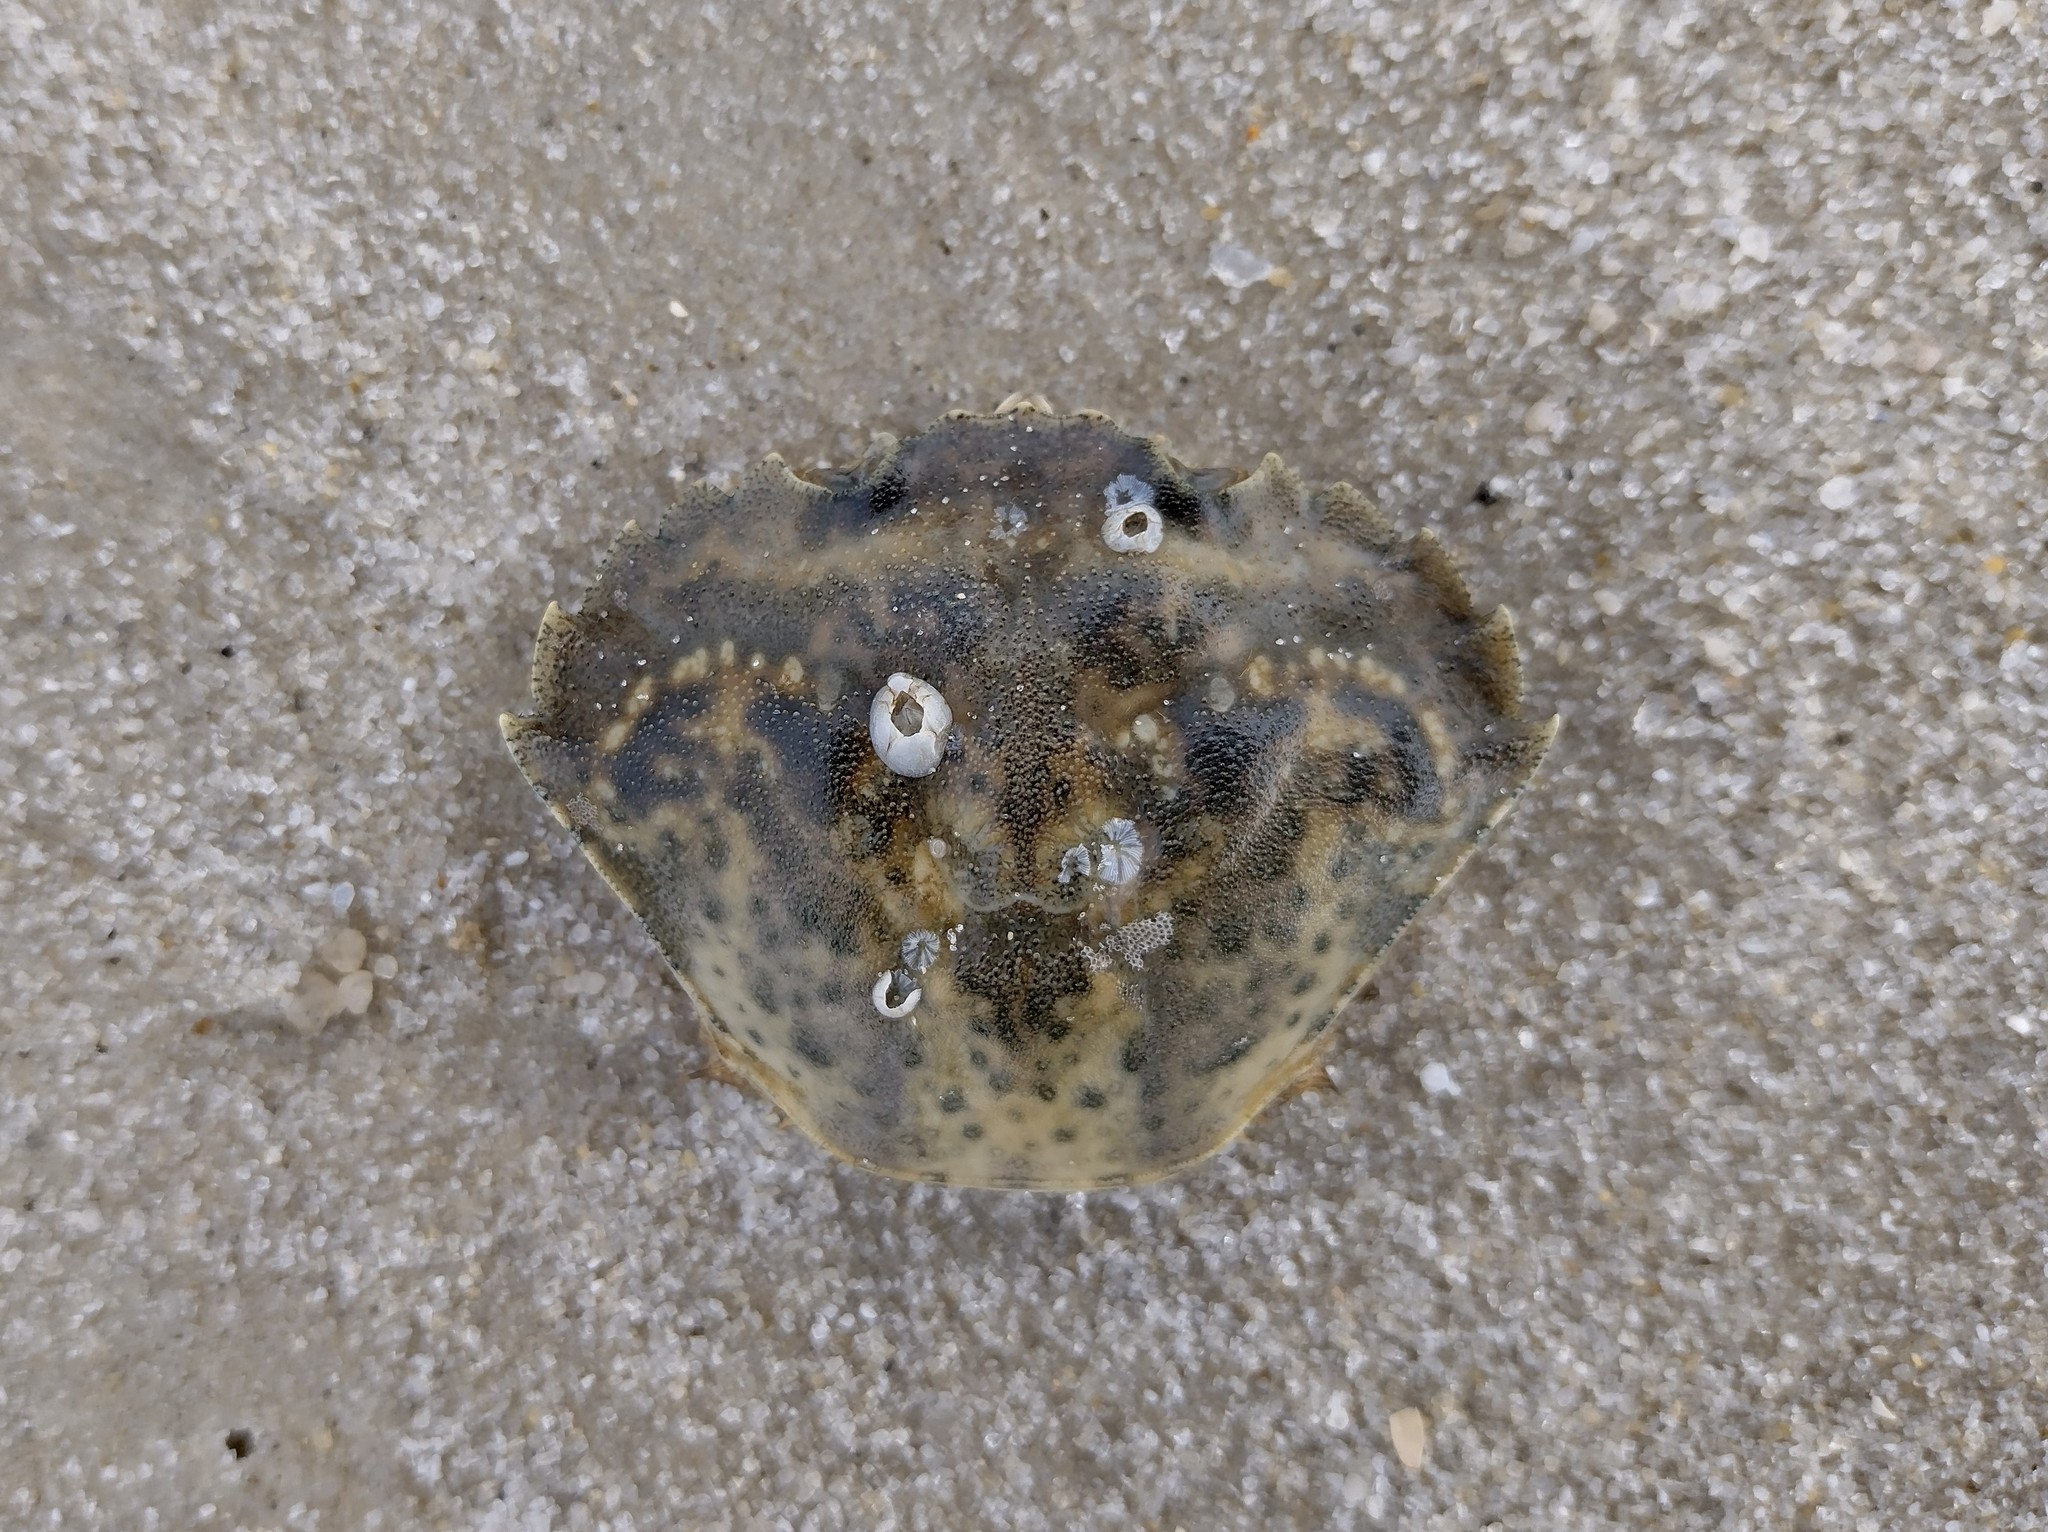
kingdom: Animalia
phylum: Arthropoda
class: Malacostraca
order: Decapoda
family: Carcinidae
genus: Carcinus
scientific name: Carcinus maenas
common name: European green crab
